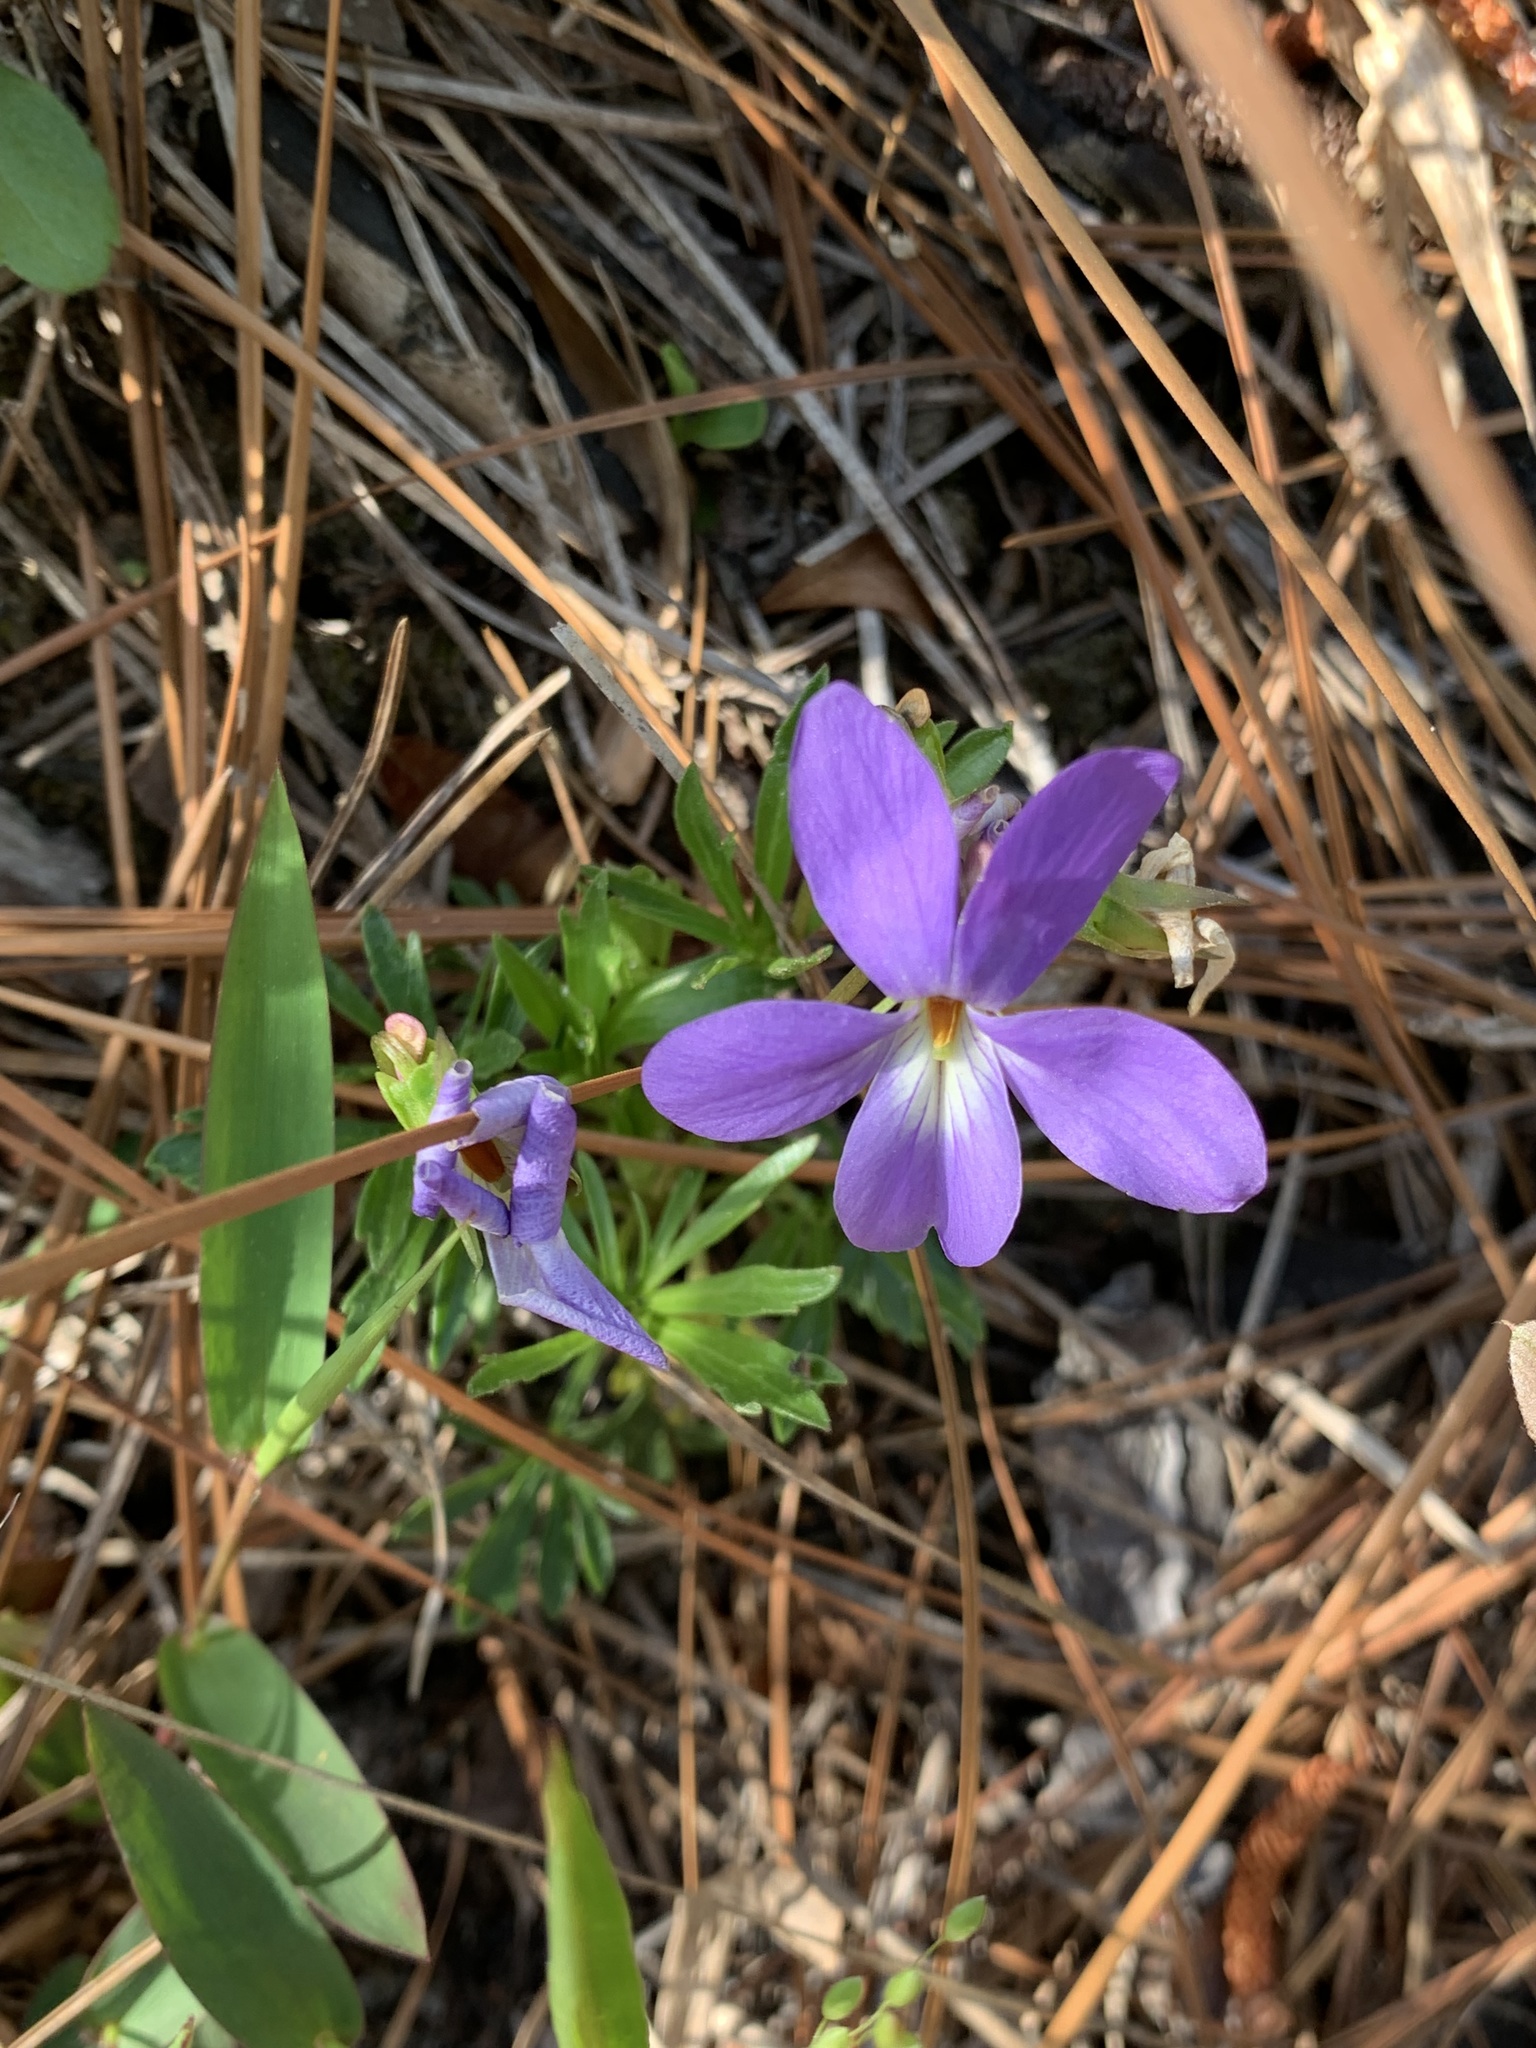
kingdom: Plantae
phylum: Tracheophyta
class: Magnoliopsida
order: Malpighiales
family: Violaceae
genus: Viola
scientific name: Viola pedata
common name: Pansy violet
